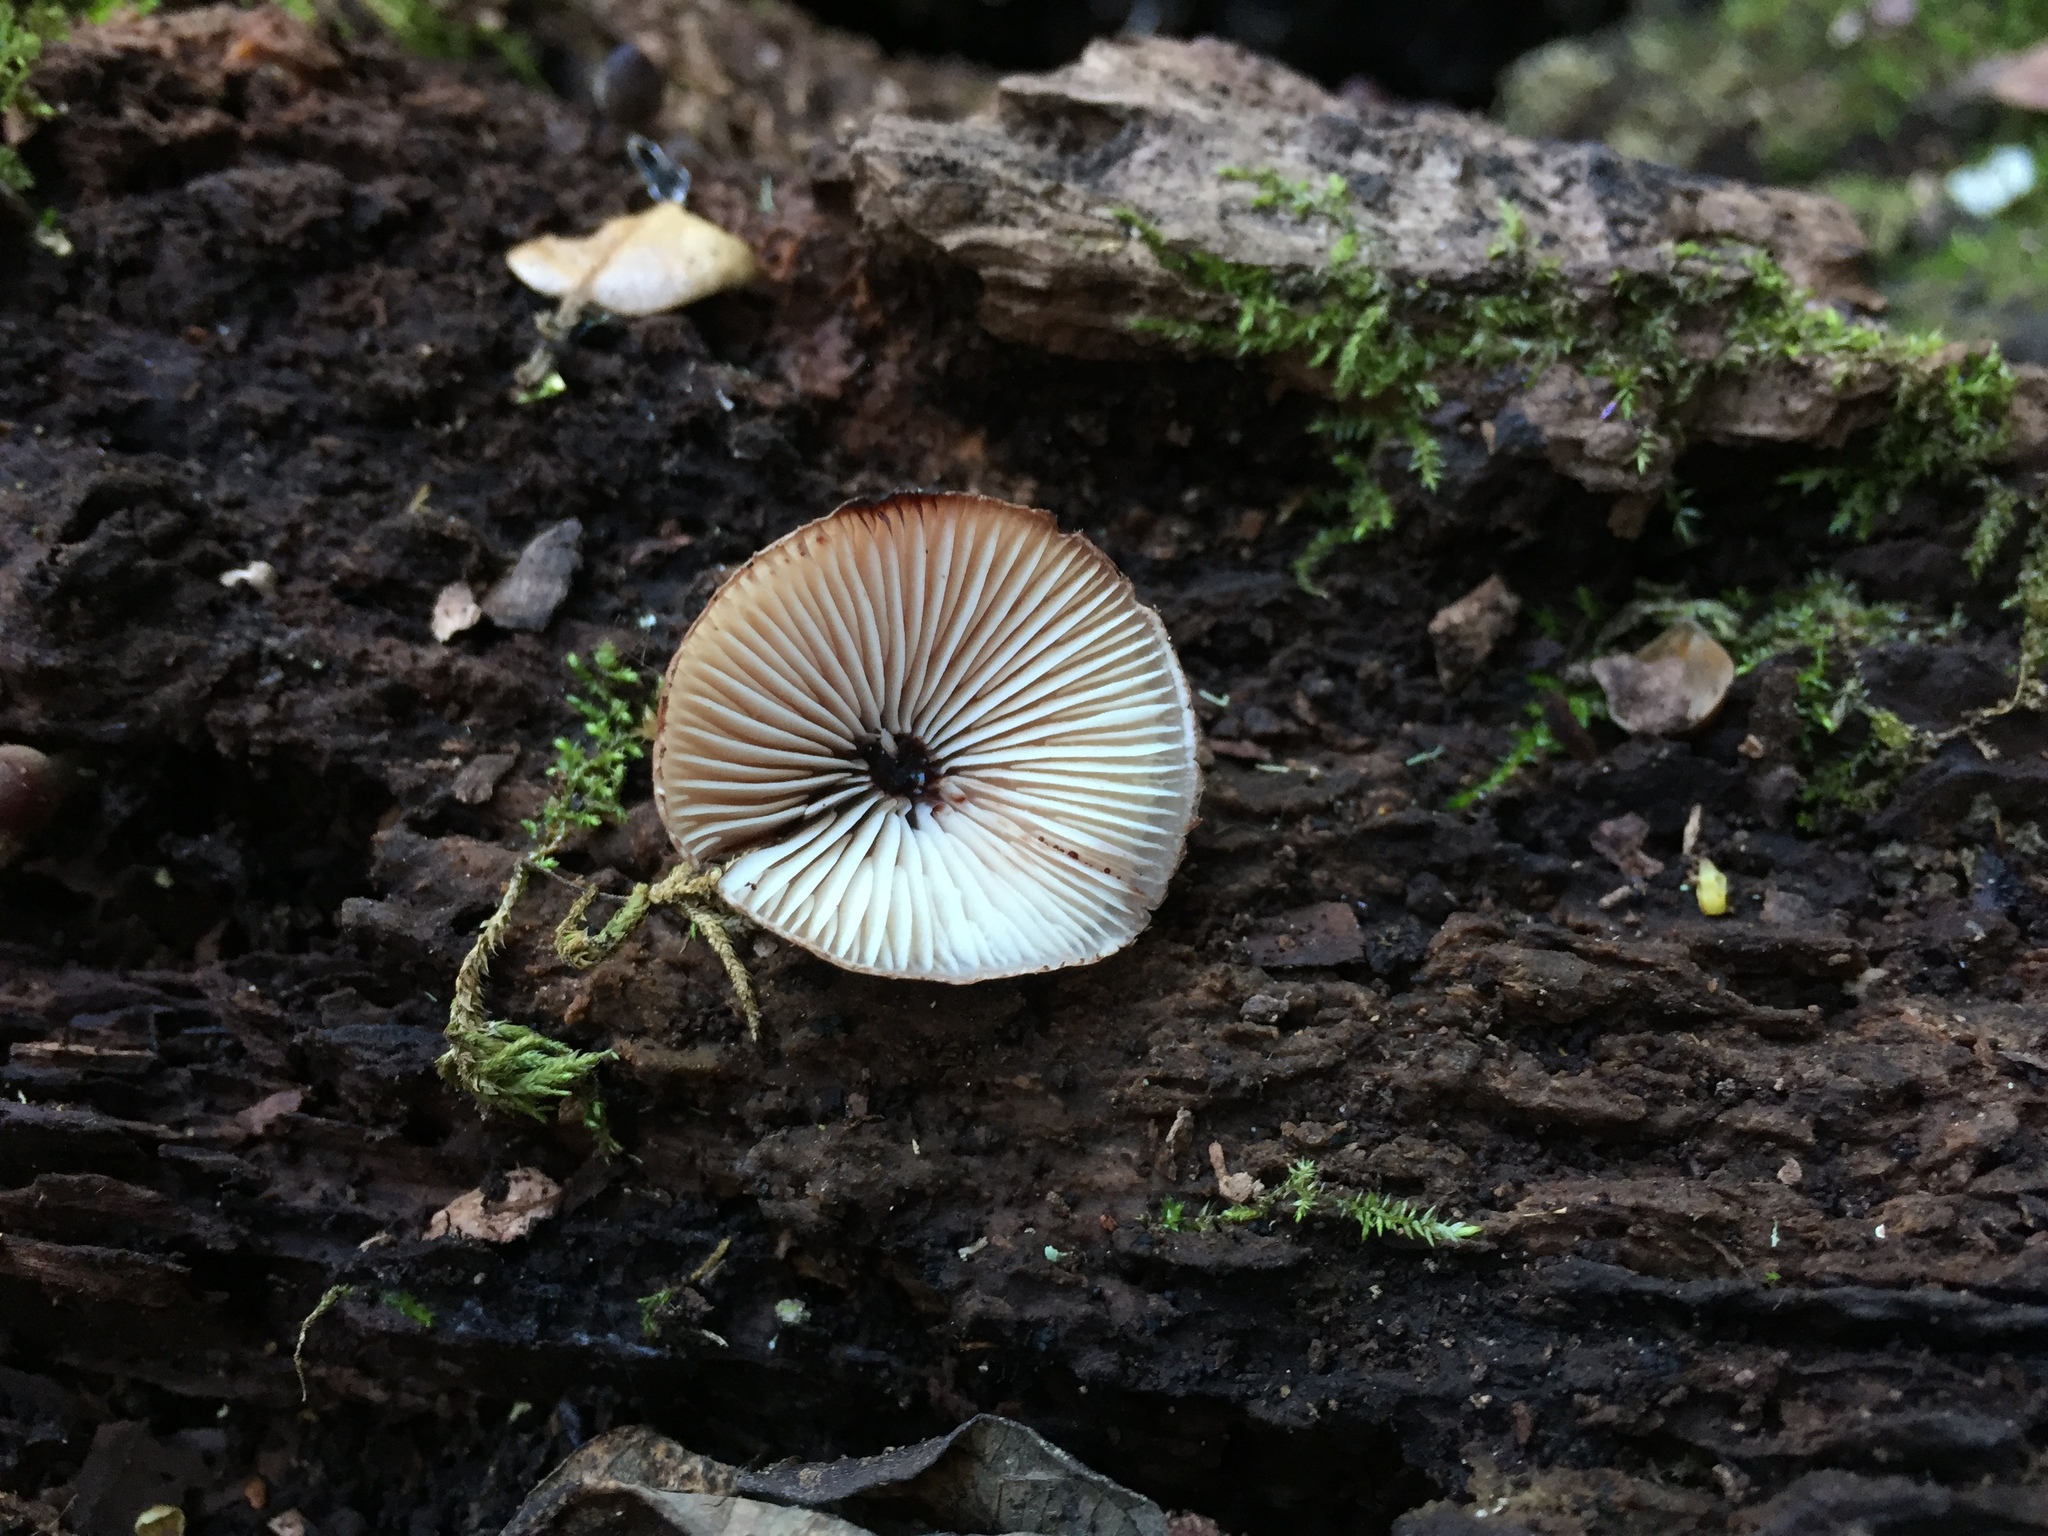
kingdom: Fungi
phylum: Basidiomycota
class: Agaricomycetes
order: Agaricales
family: Mycenaceae
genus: Mycena
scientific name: Mycena haematopus
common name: Burgundydrop bonnet
